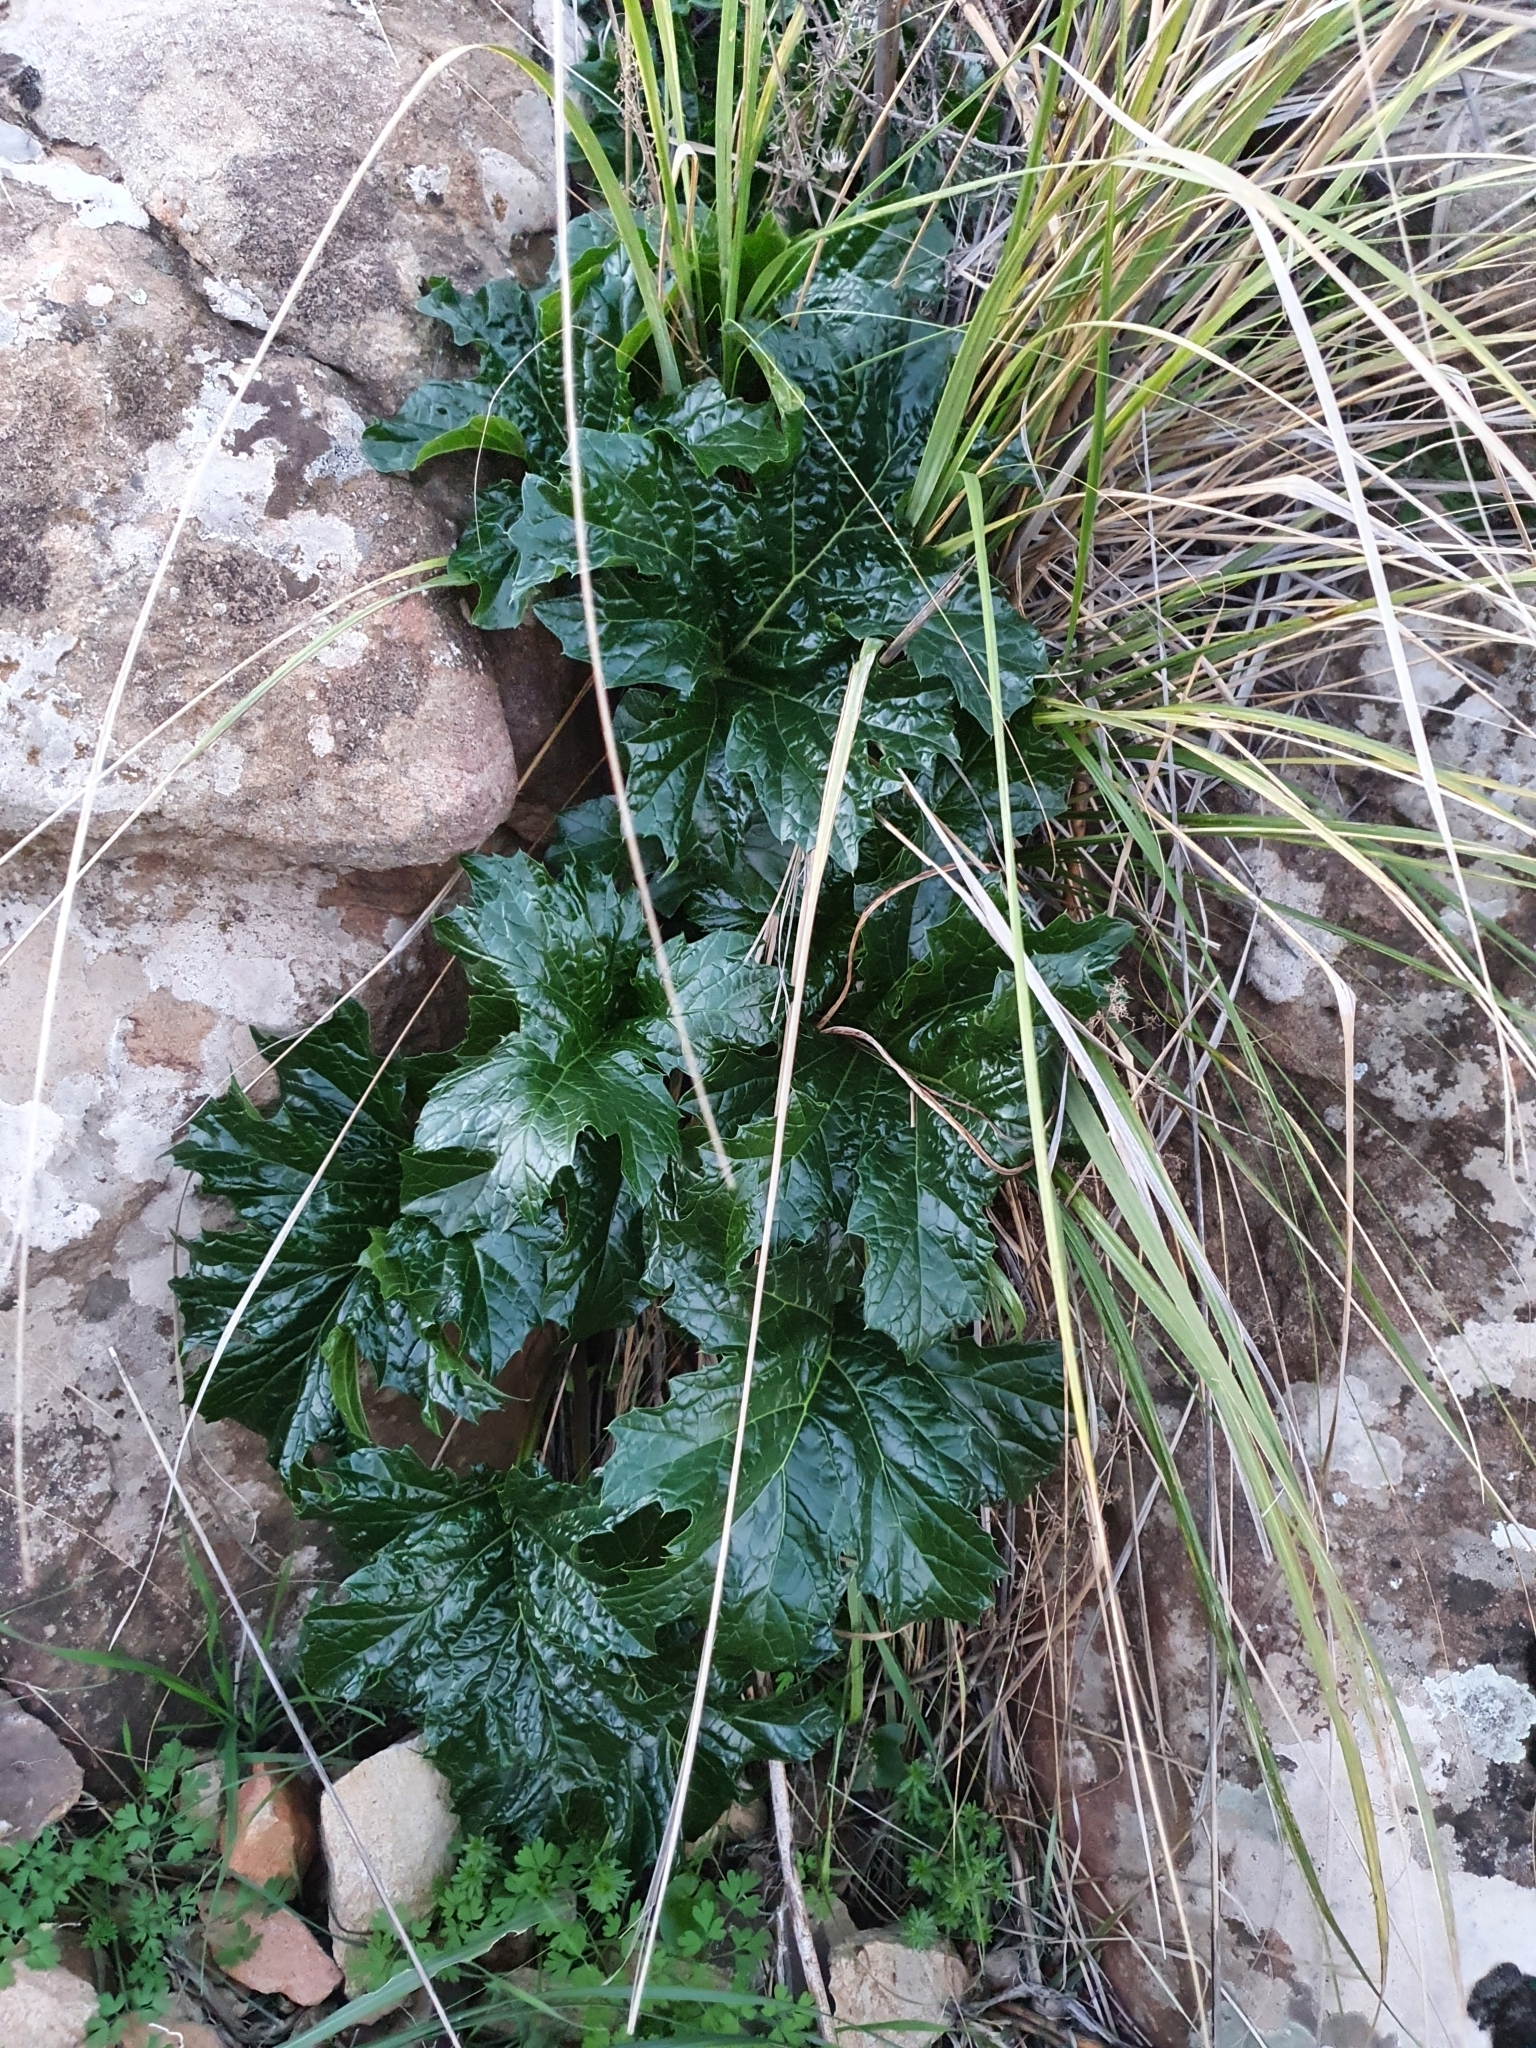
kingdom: Plantae
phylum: Tracheophyta
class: Magnoliopsida
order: Lamiales
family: Acanthaceae
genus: Acanthus
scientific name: Acanthus mollis
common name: Bear's-breech
